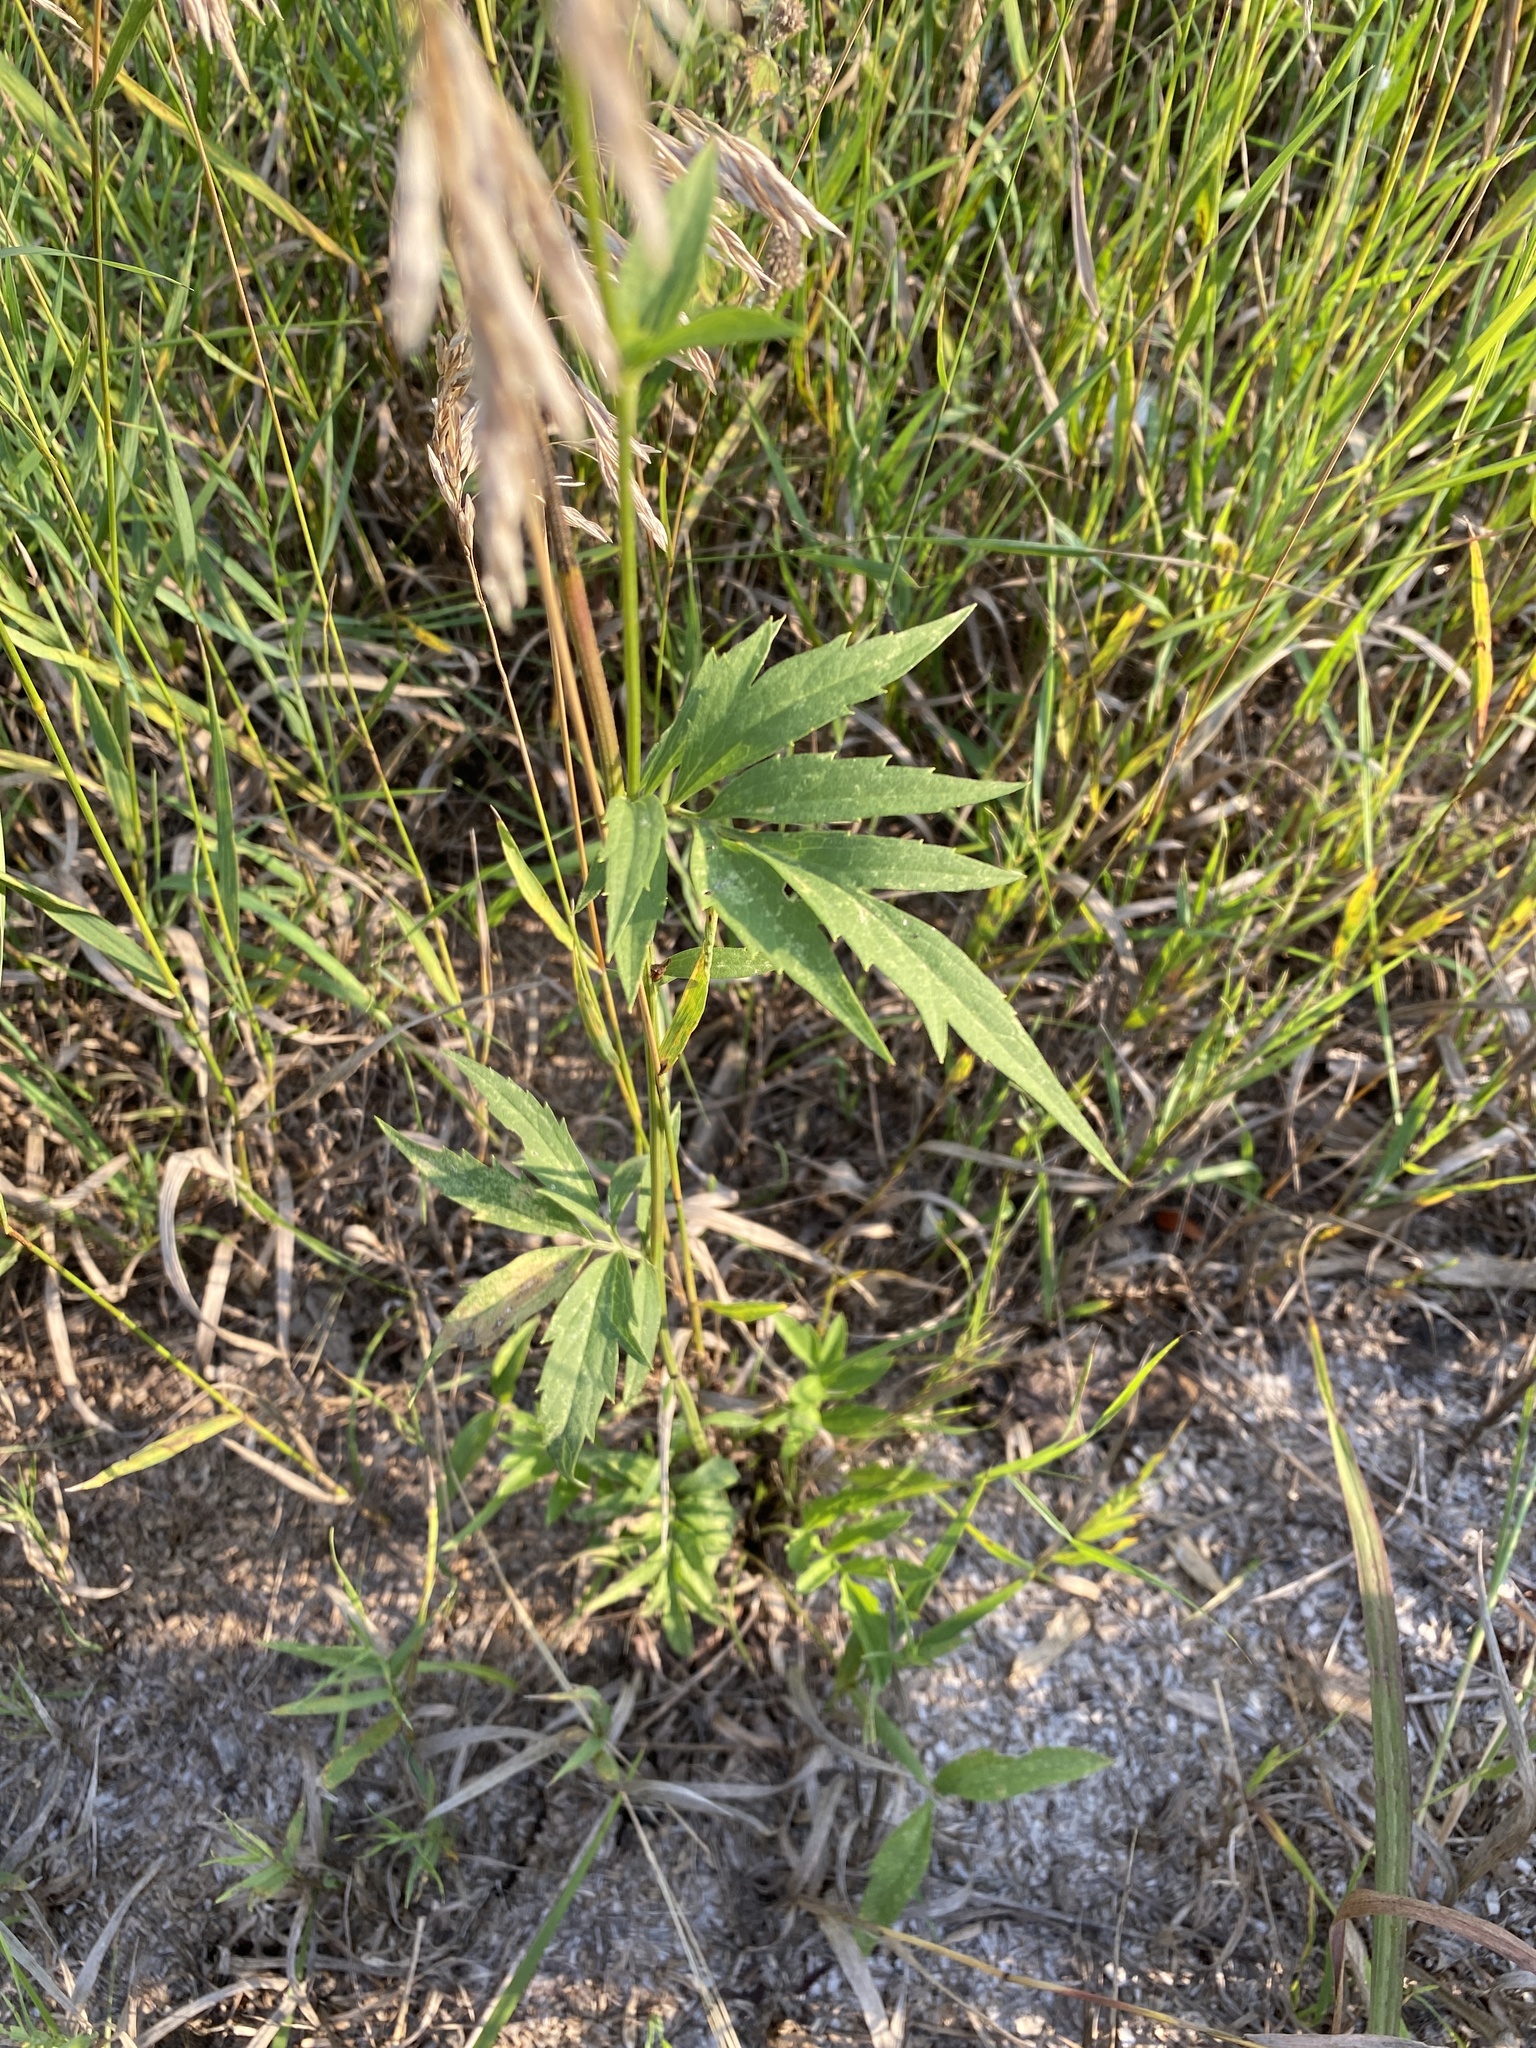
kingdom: Plantae
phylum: Tracheophyta
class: Magnoliopsida
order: Asterales
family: Asteraceae
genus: Ratibida
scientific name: Ratibida pinnata
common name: Drooping prairie-coneflower
